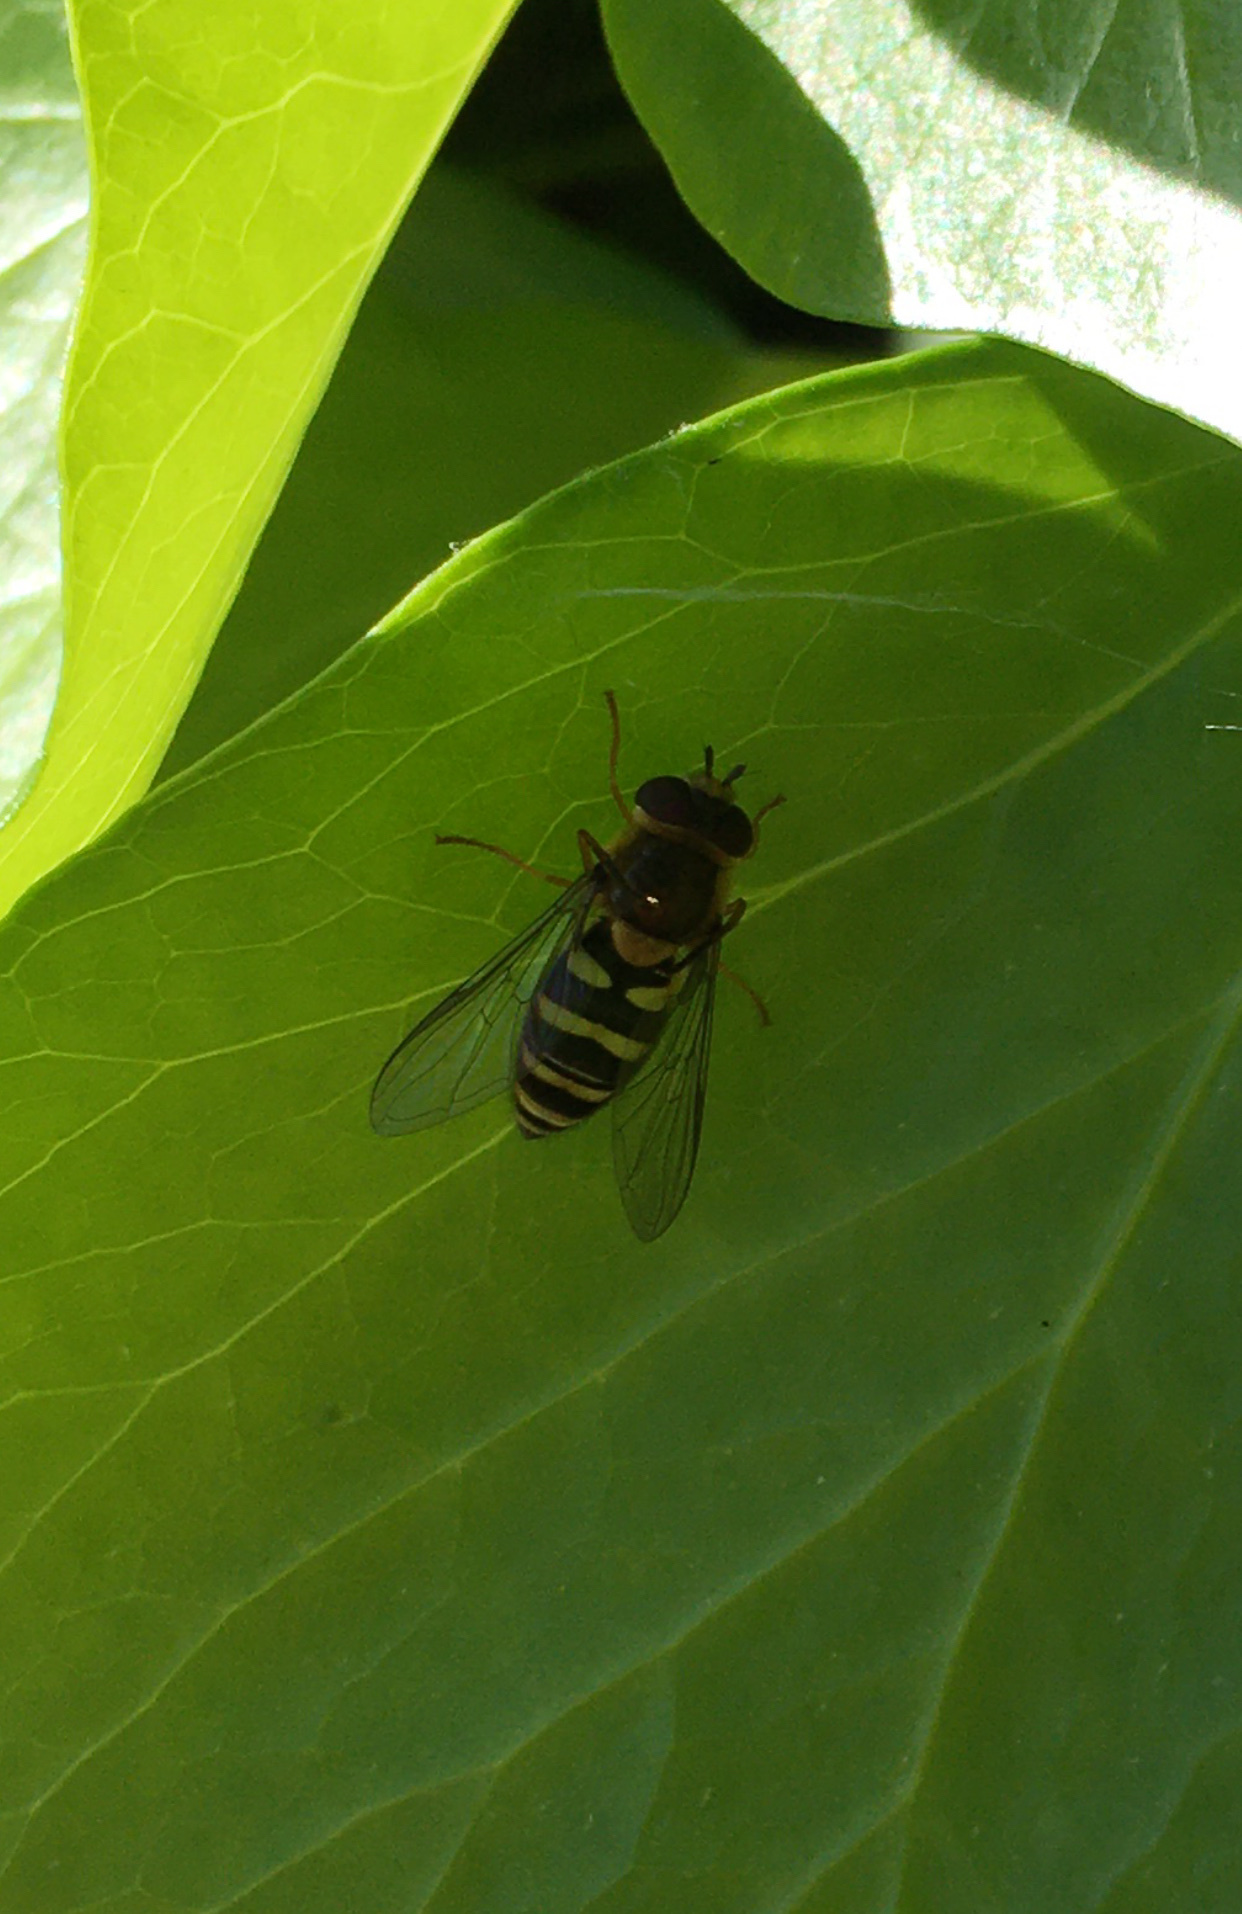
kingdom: Animalia
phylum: Arthropoda
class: Insecta
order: Diptera
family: Syrphidae
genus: Syrphus
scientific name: Syrphus opinator
